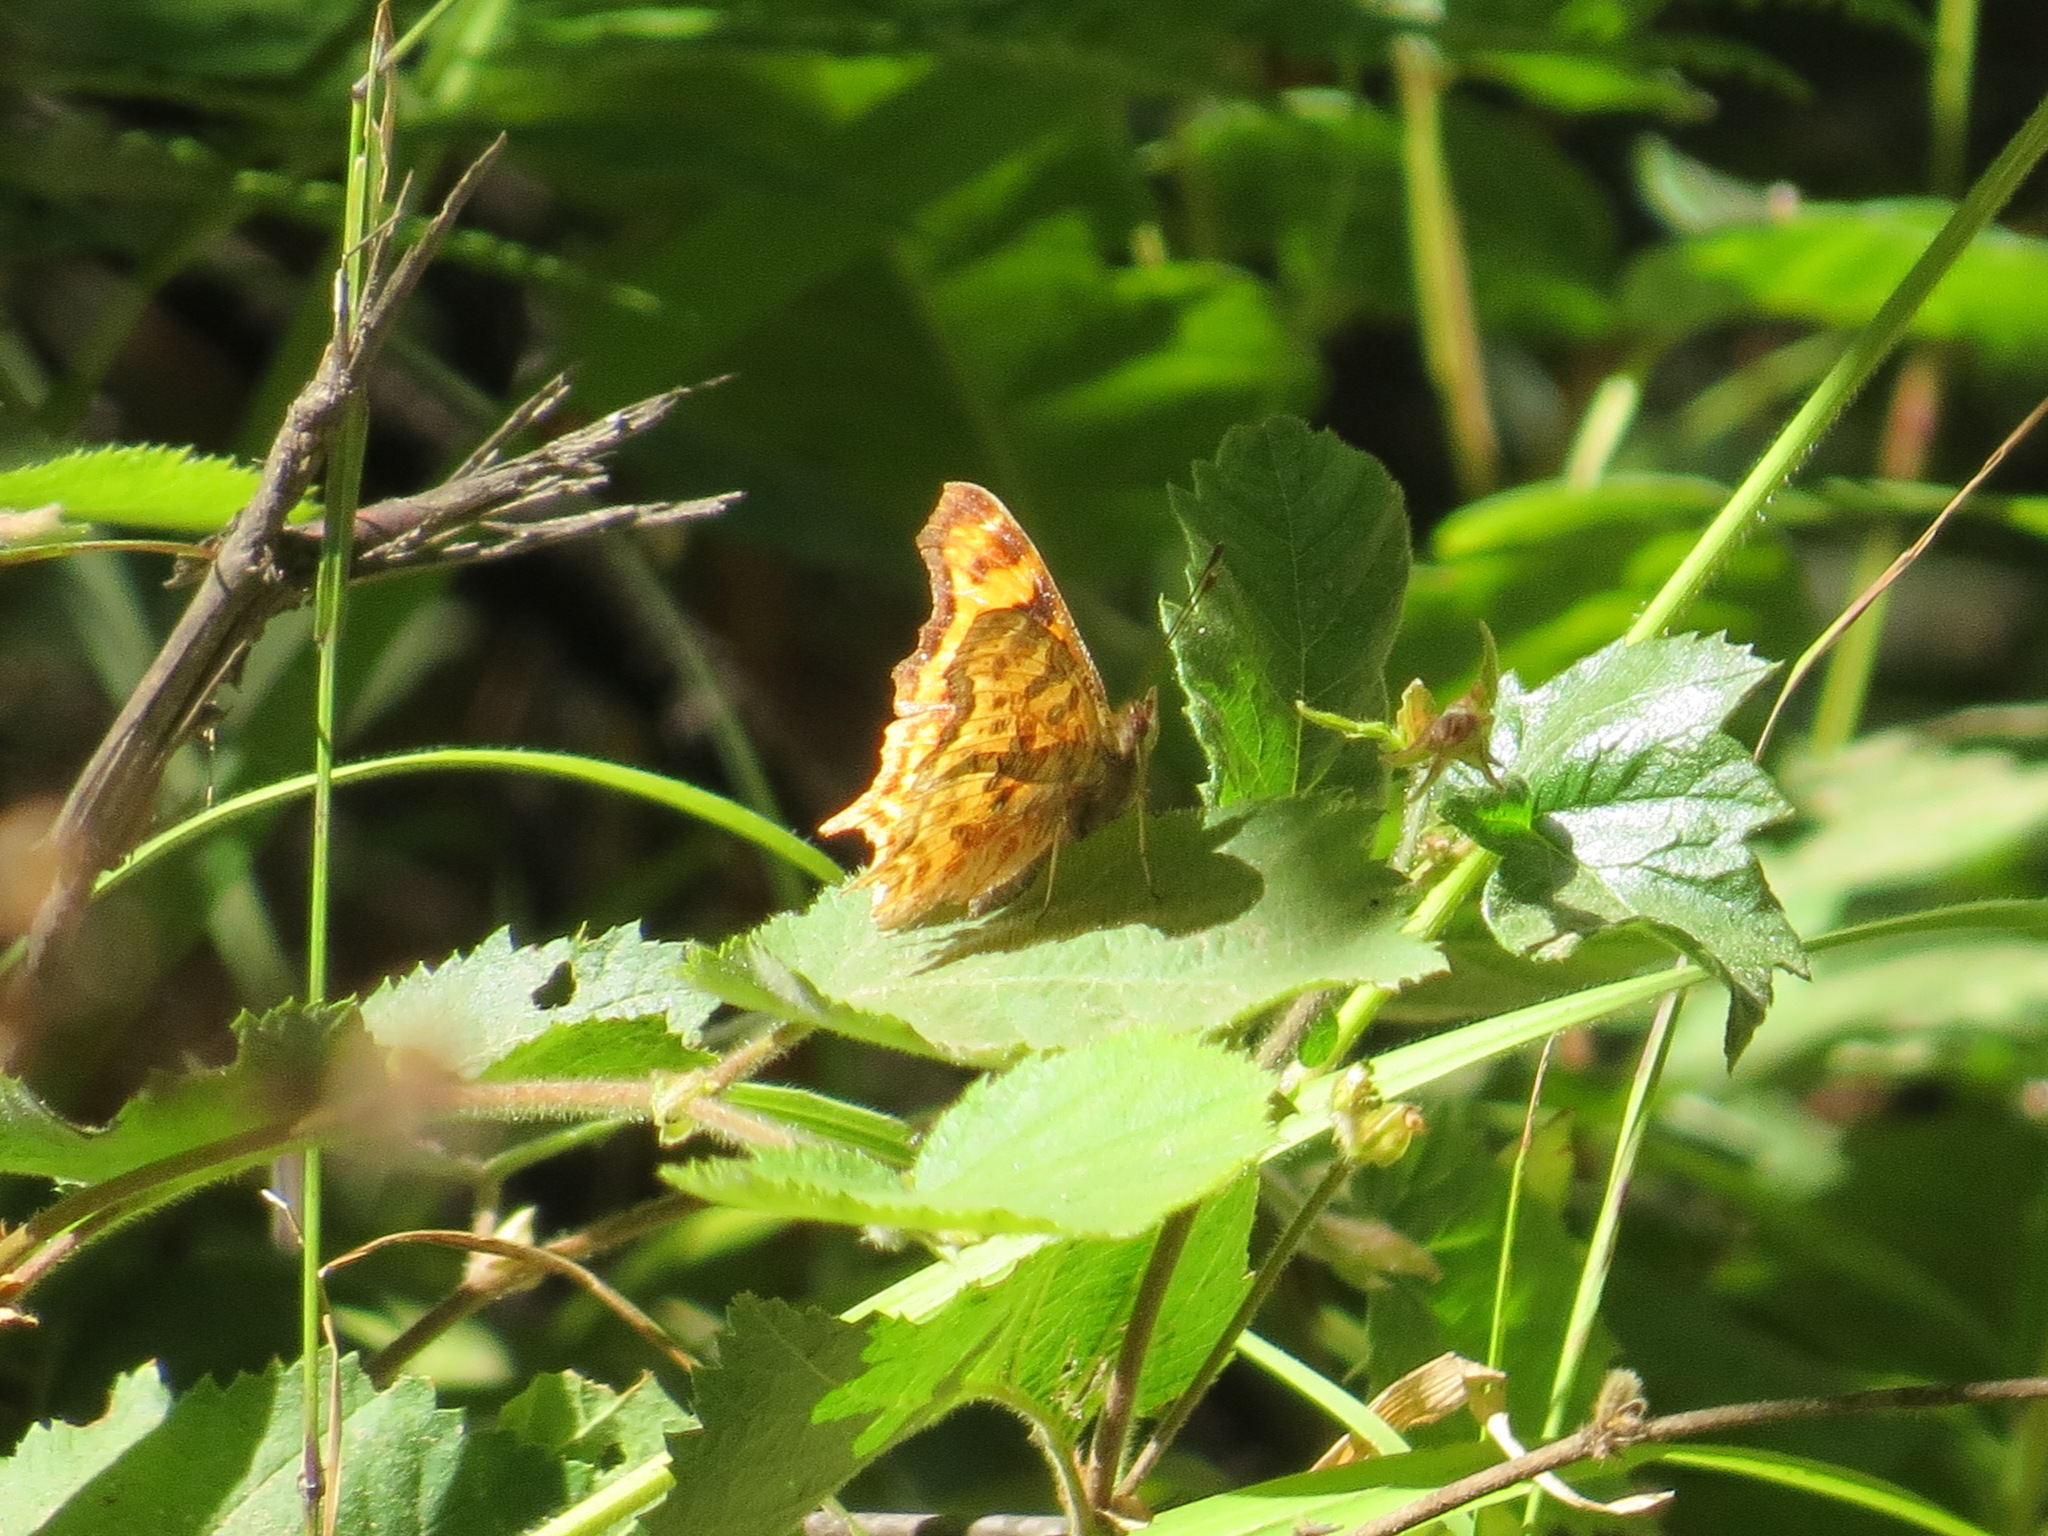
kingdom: Animalia
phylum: Arthropoda
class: Insecta
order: Lepidoptera
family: Nymphalidae
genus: Polygonia
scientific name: Polygonia satyrus
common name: Satyr angle wing
